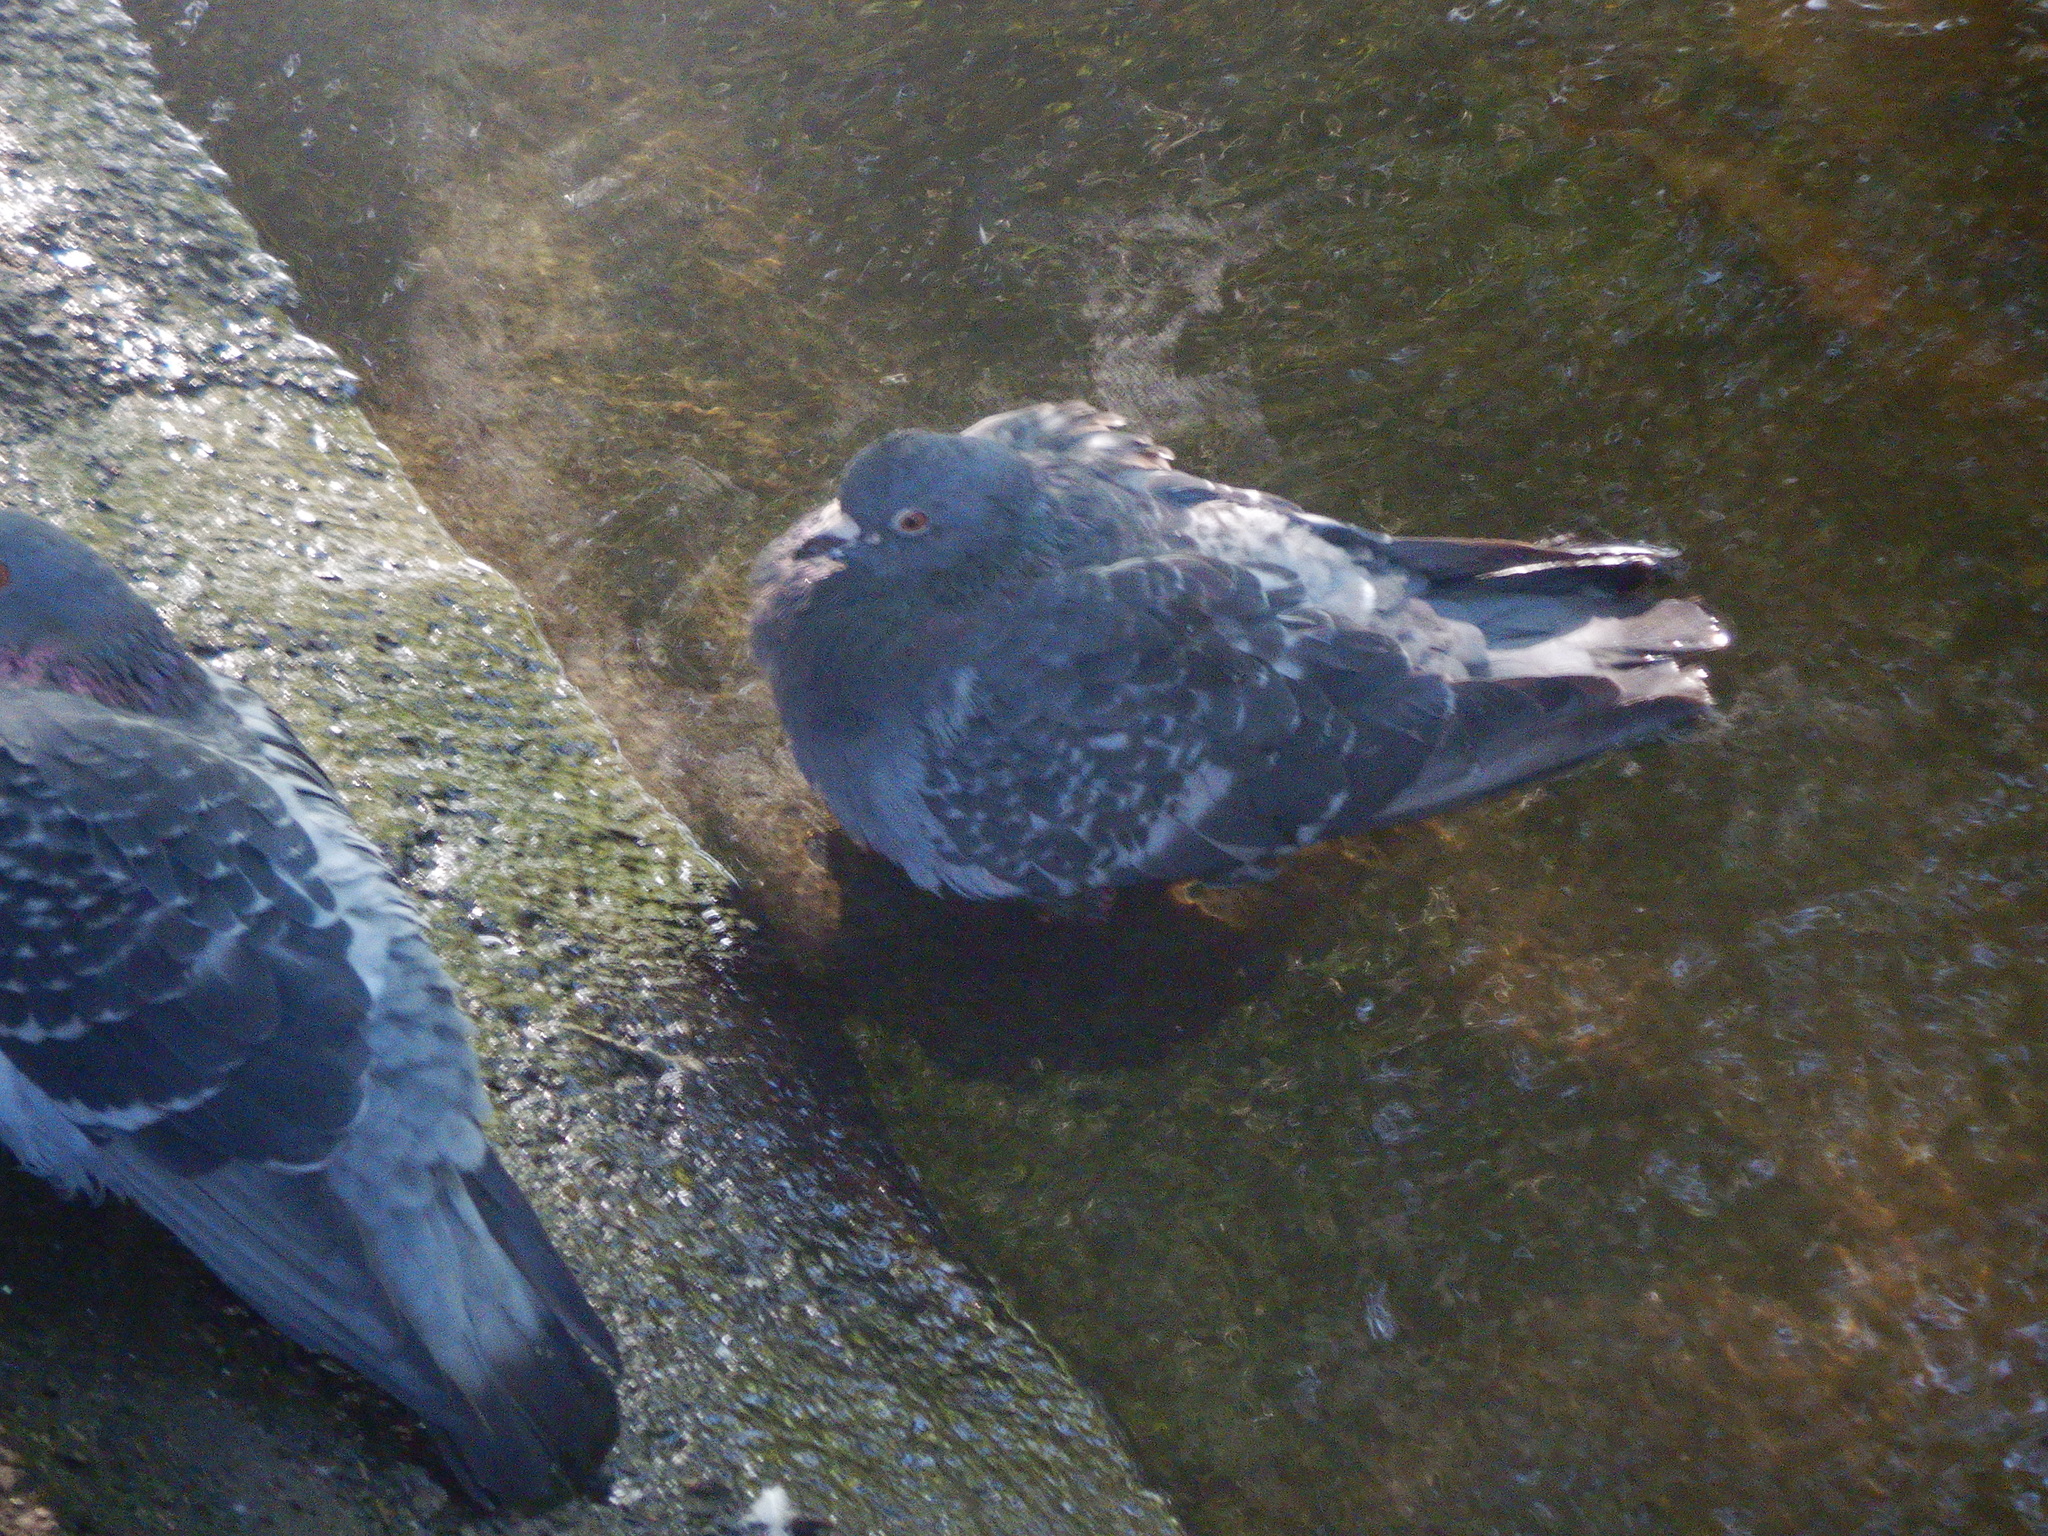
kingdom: Animalia
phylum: Chordata
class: Aves
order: Columbiformes
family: Columbidae
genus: Columba
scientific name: Columba livia
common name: Rock pigeon
